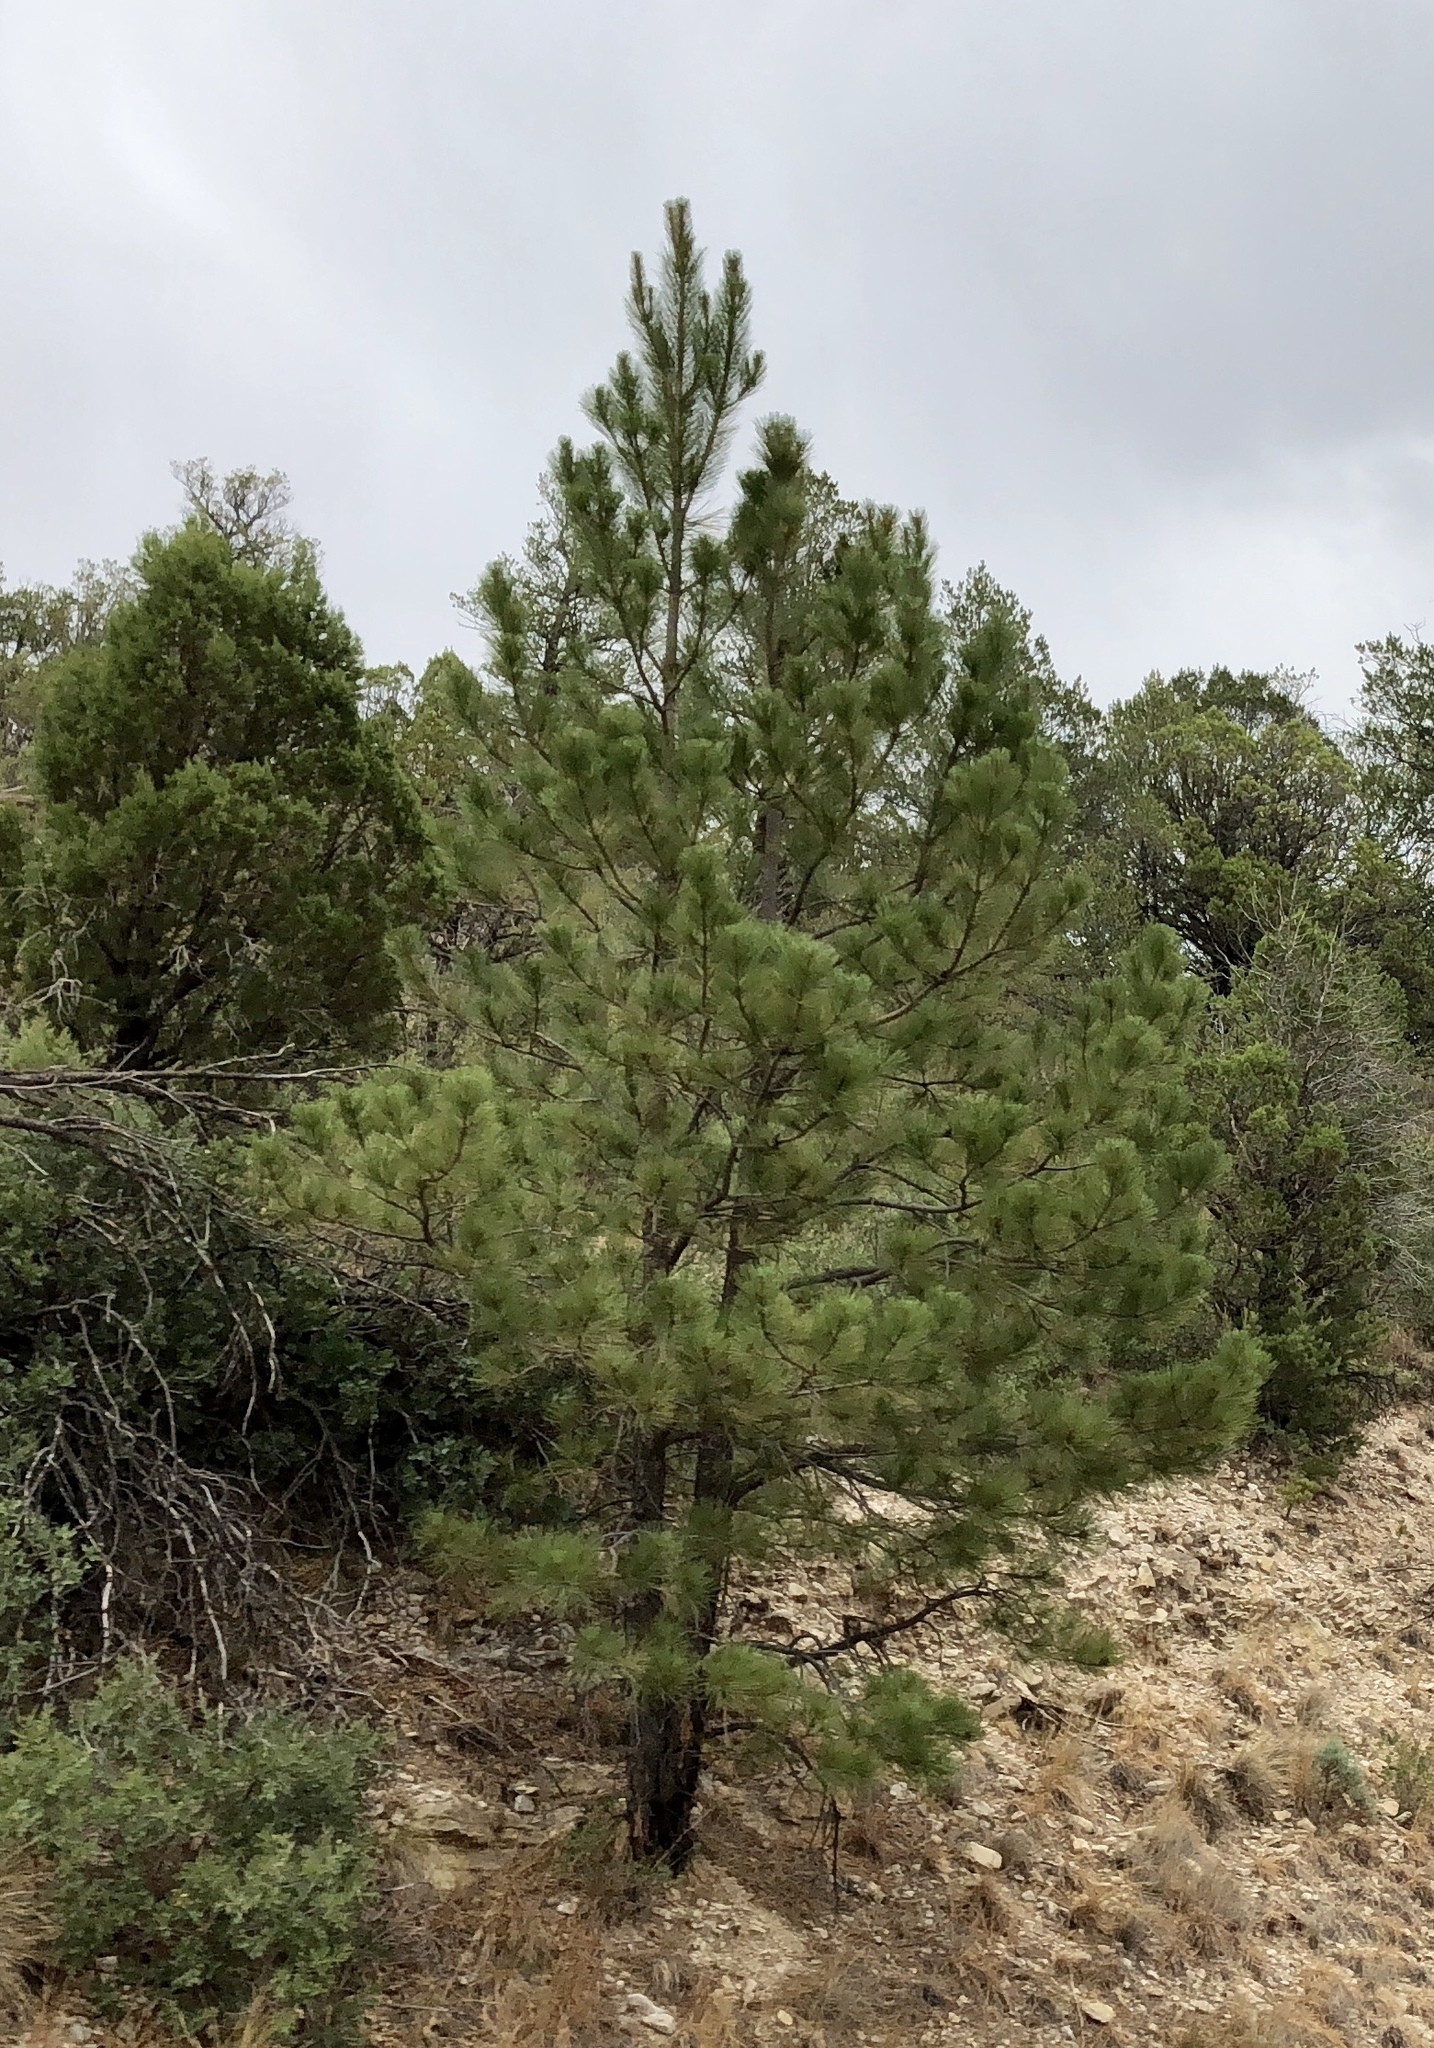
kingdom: Plantae
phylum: Tracheophyta
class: Pinopsida
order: Pinales
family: Pinaceae
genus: Pinus
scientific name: Pinus ponderosa
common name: Western yellow-pine
